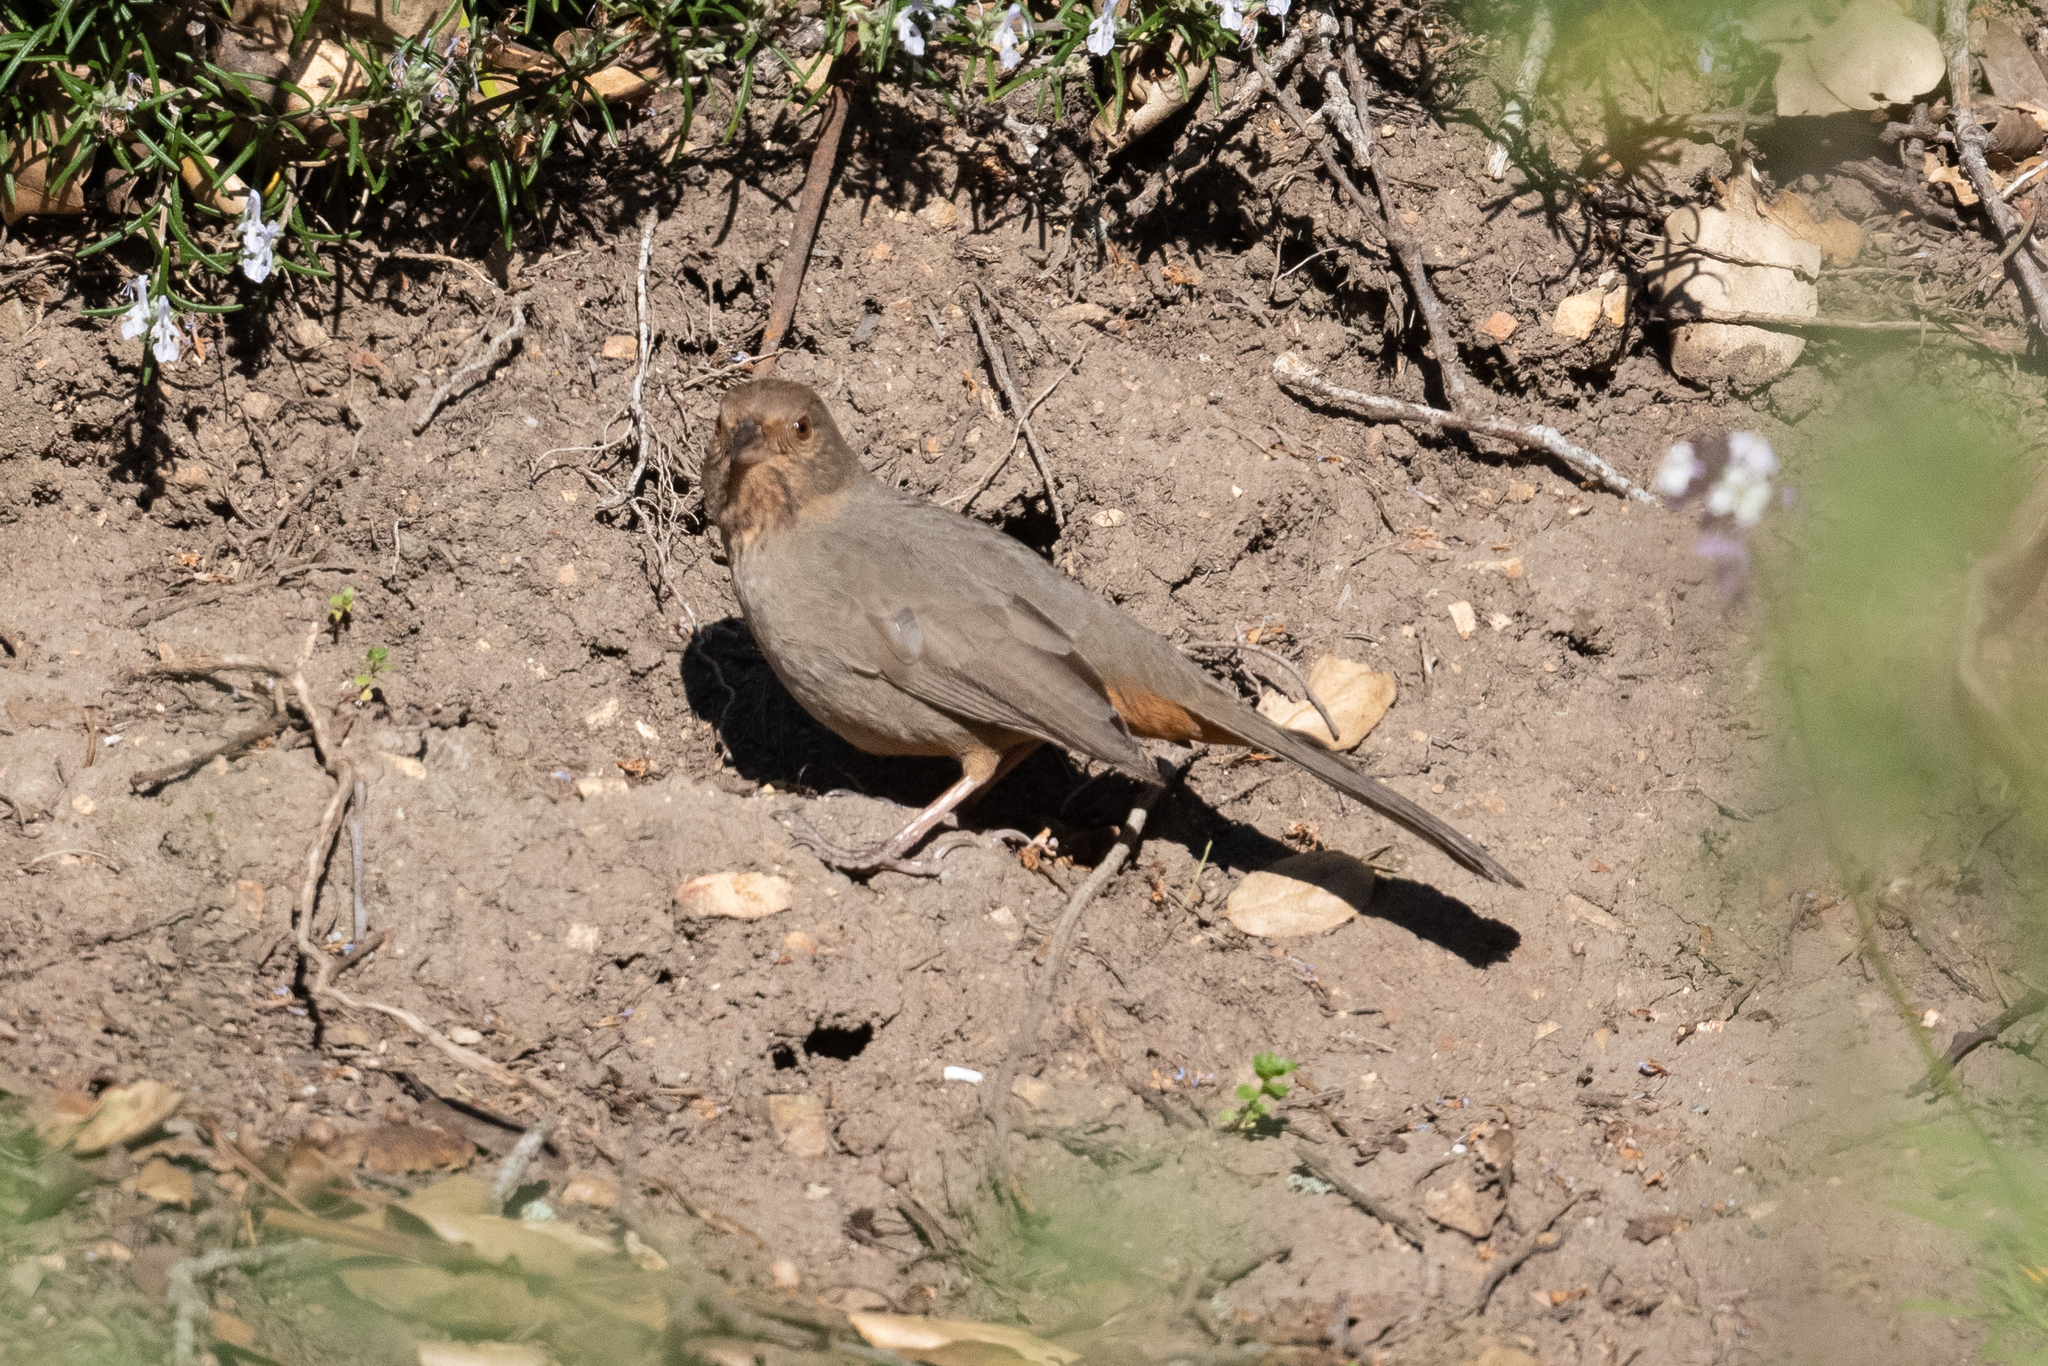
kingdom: Animalia
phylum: Chordata
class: Aves
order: Passeriformes
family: Passerellidae
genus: Melozone
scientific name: Melozone crissalis
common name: California towhee
